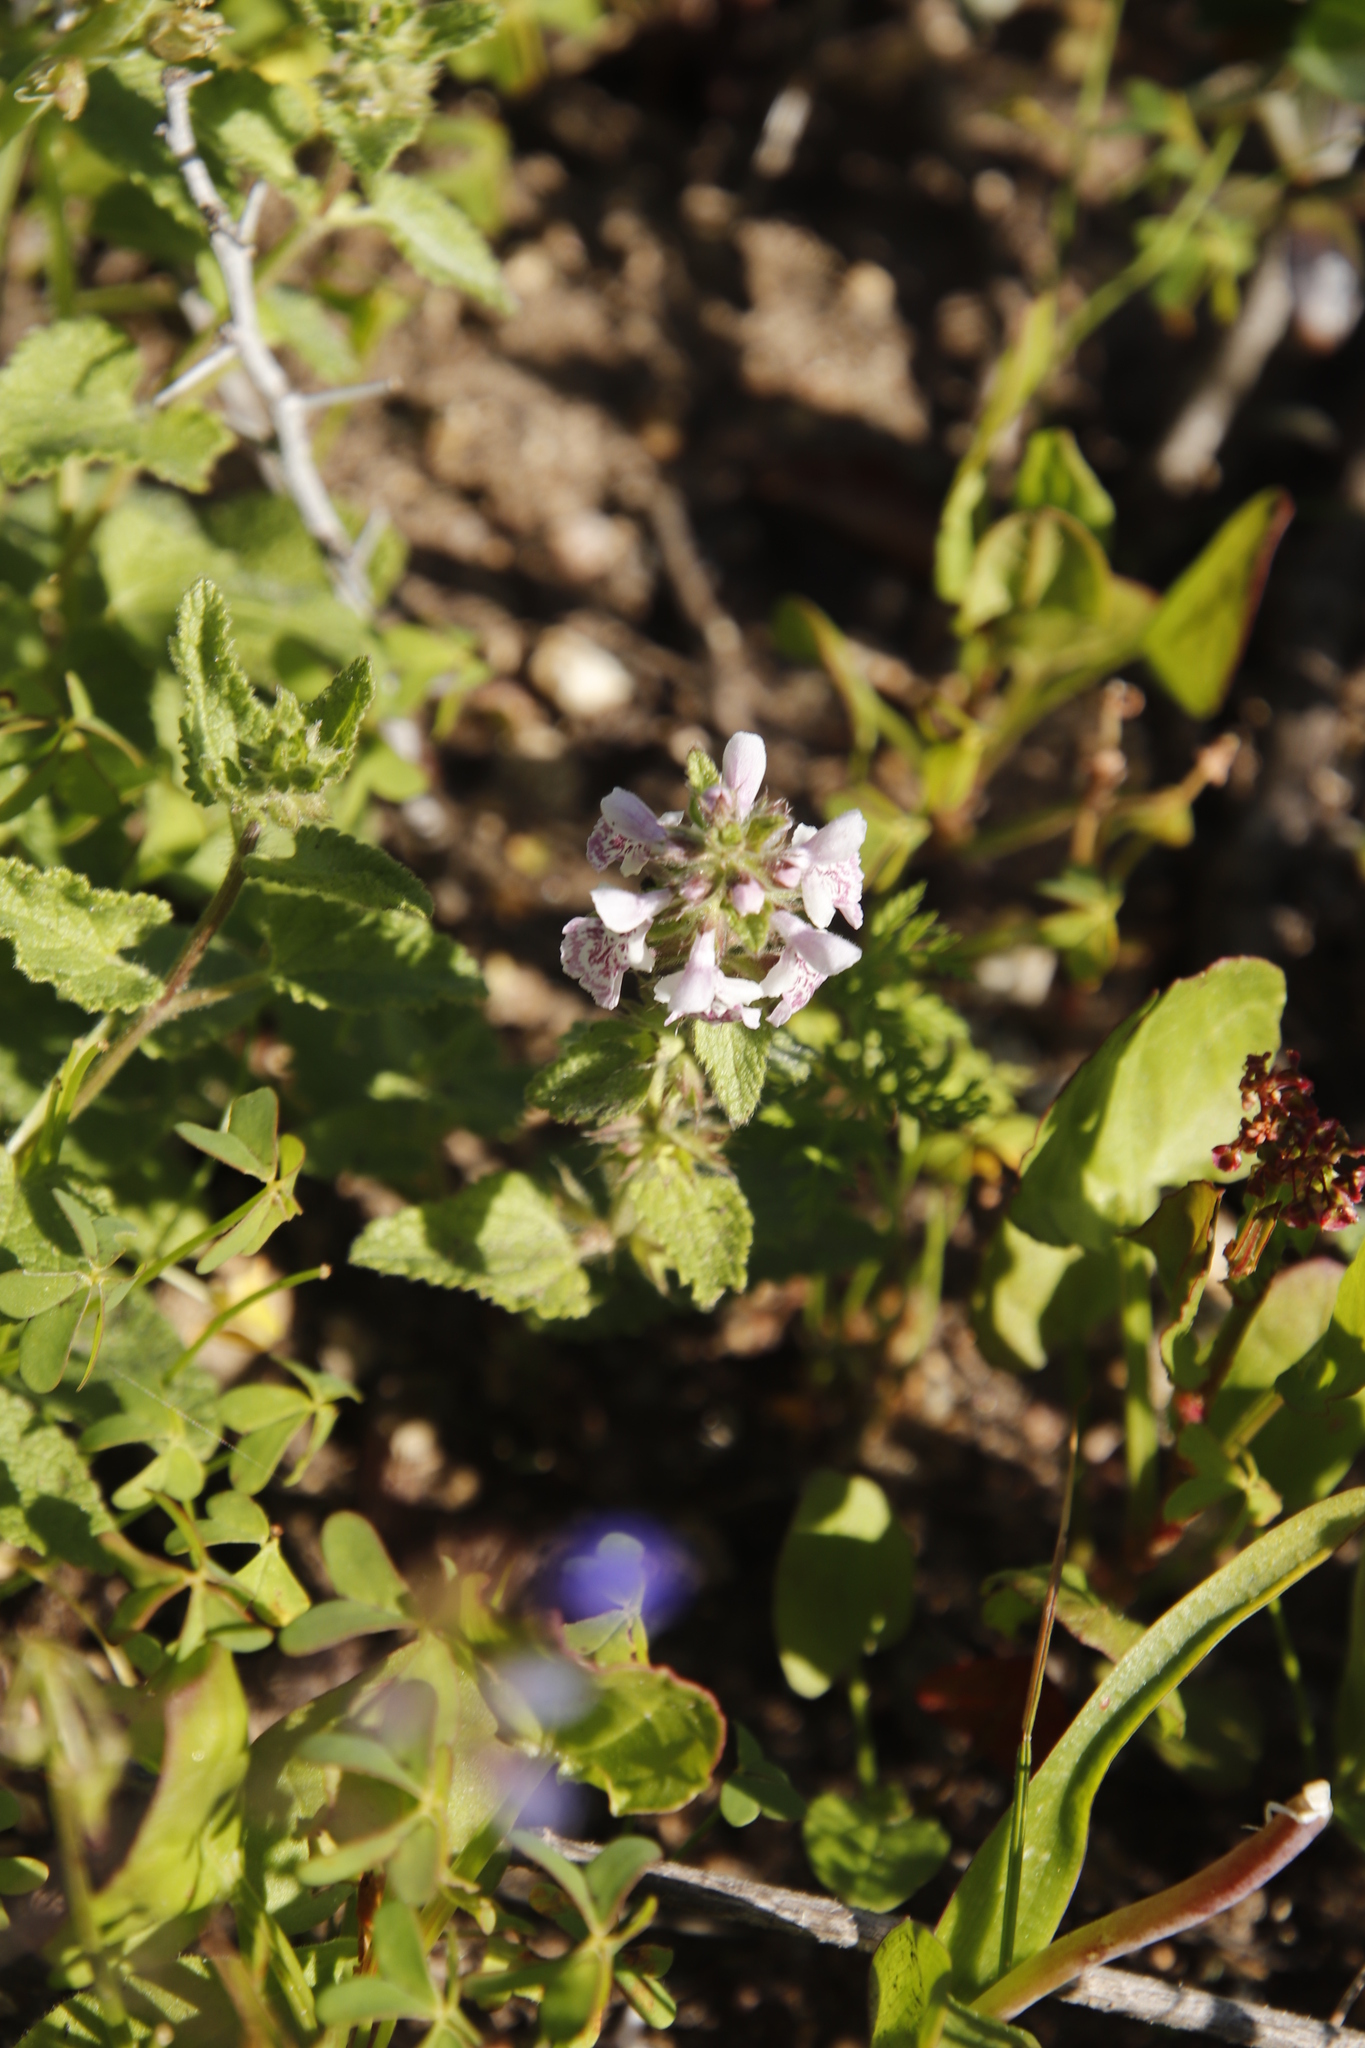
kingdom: Plantae
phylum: Tracheophyta
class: Magnoliopsida
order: Lamiales
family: Lamiaceae
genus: Stachys
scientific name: Stachys bolusii
